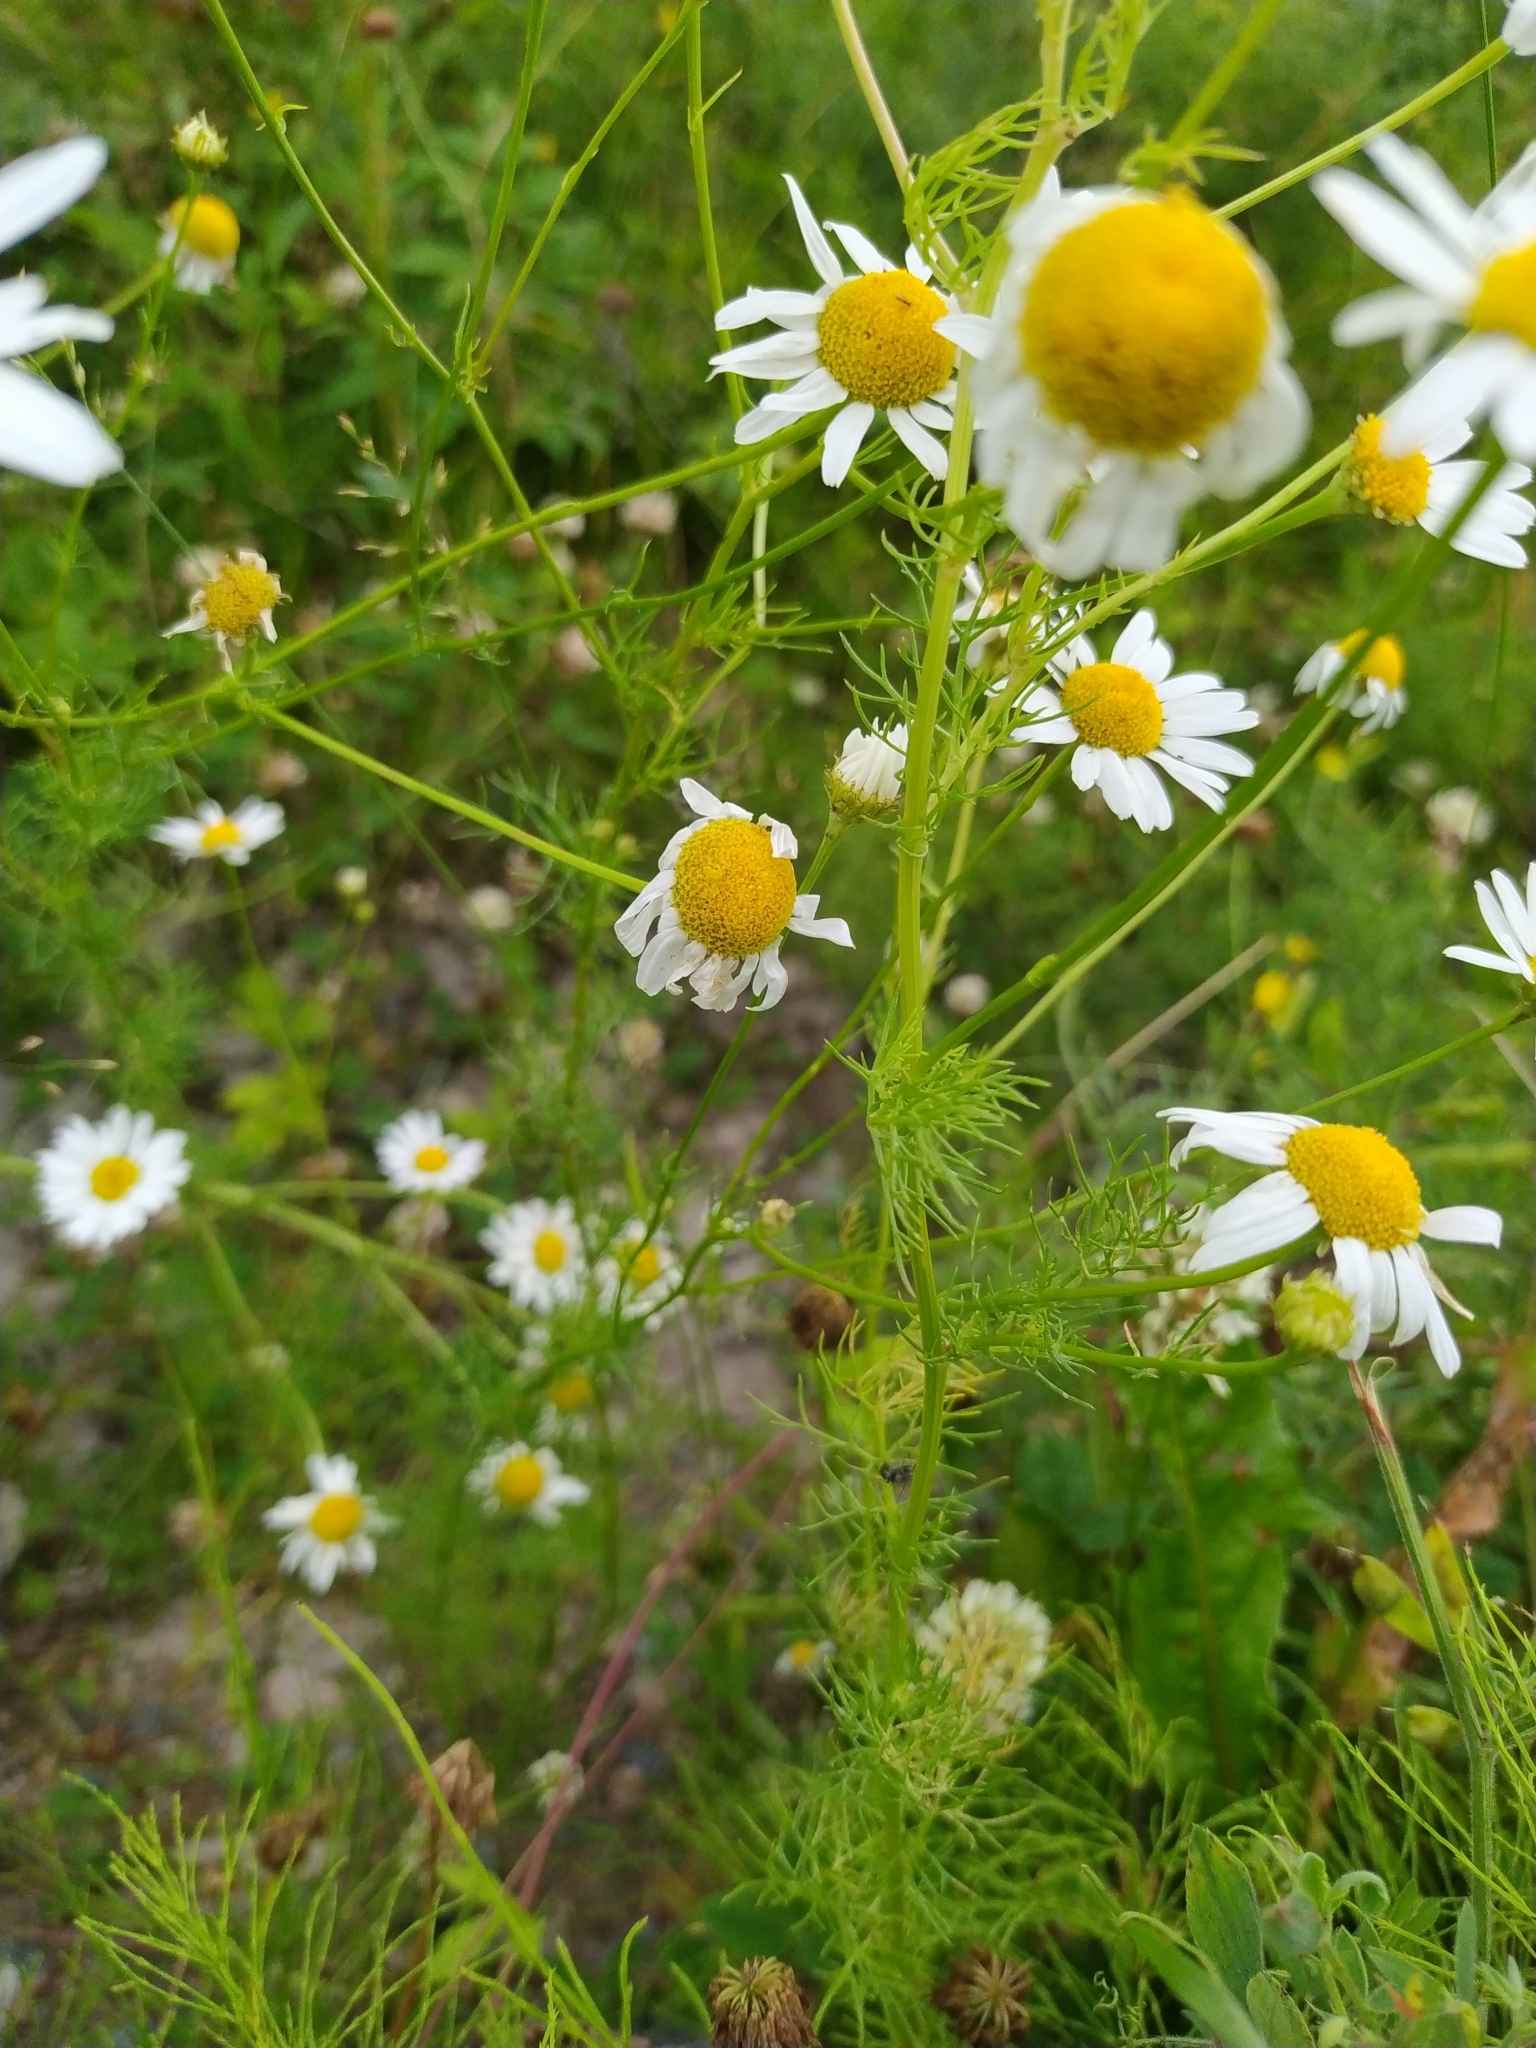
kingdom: Plantae
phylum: Tracheophyta
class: Magnoliopsida
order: Asterales
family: Asteraceae
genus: Tripleurospermum
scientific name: Tripleurospermum inodorum
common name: Scentless mayweed
